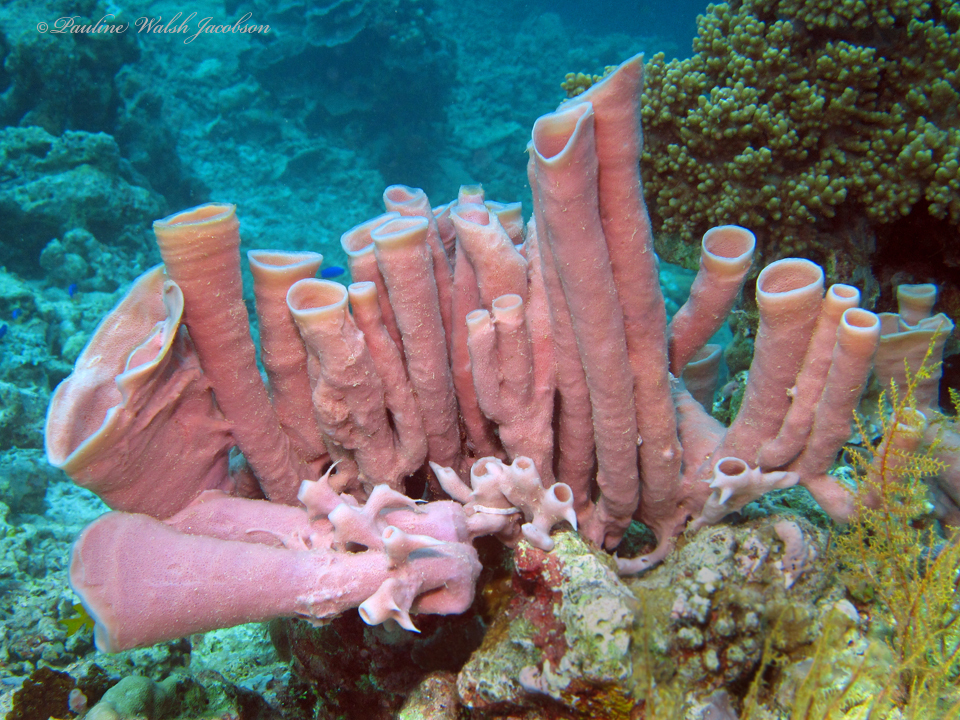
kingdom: Animalia
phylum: Porifera
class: Demospongiae
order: Haplosclerida
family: Chalinidae
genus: Haliclona
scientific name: Haliclona fascigera
